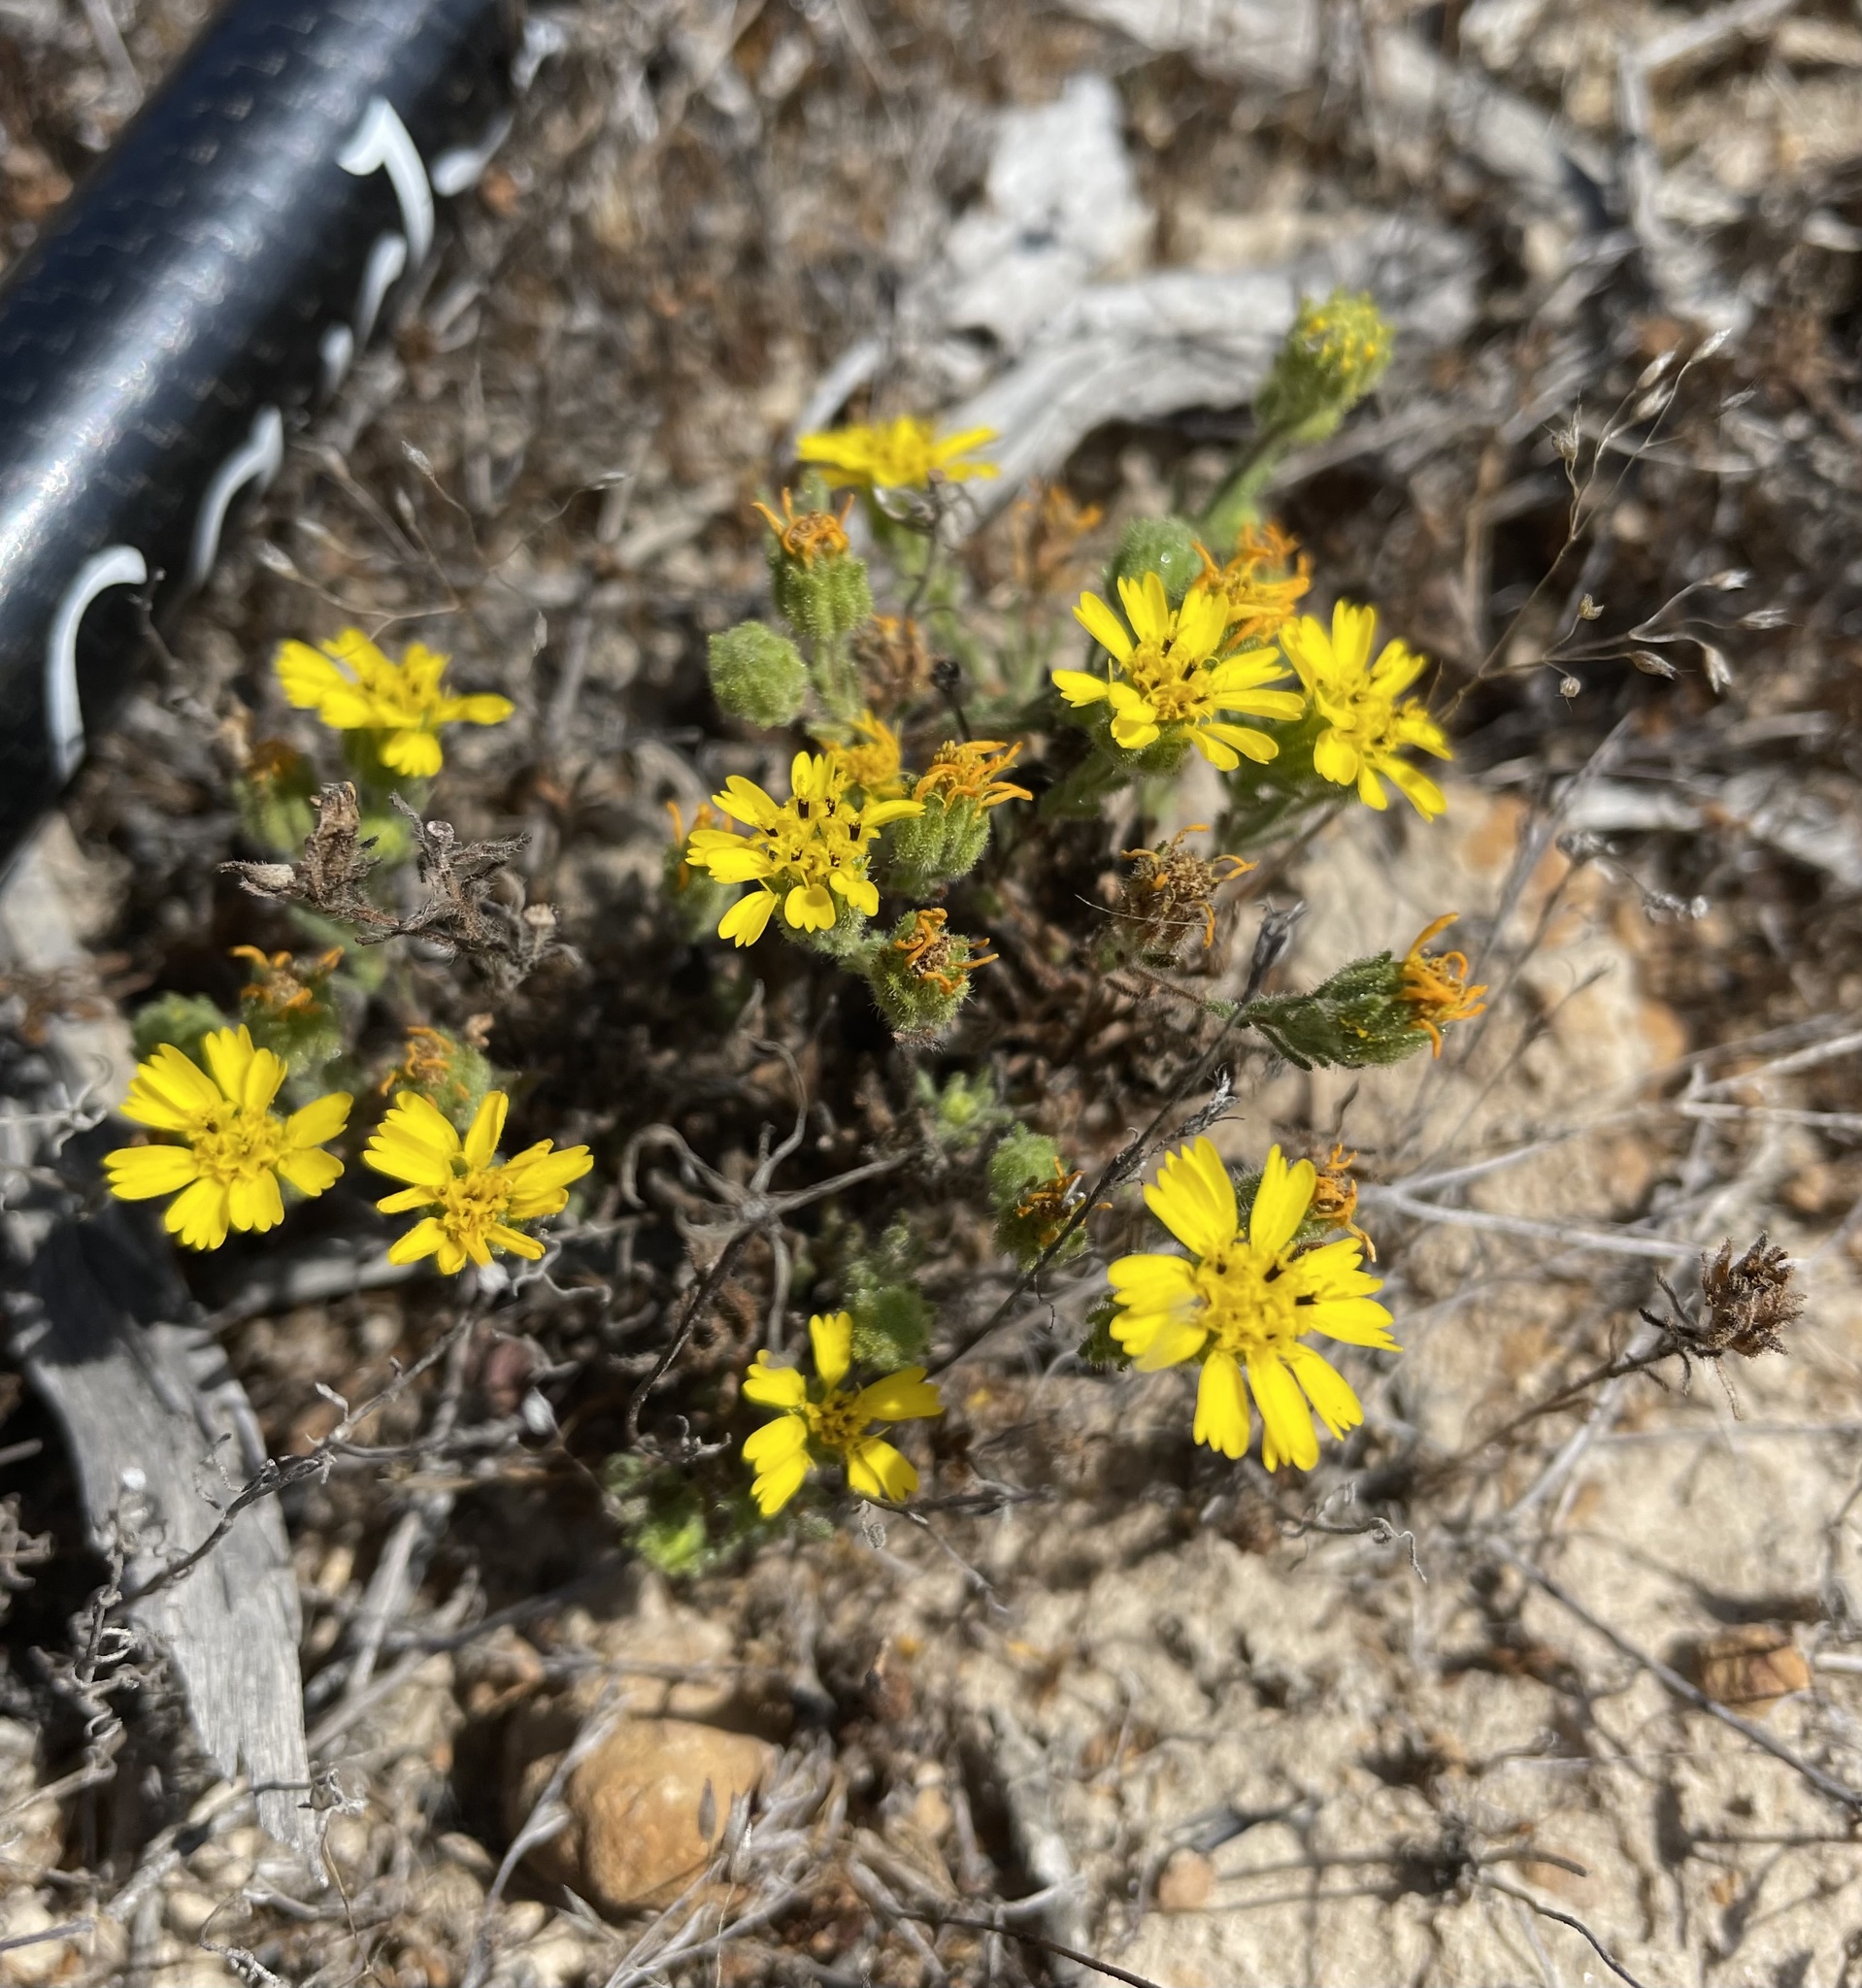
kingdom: Plantae
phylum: Tracheophyta
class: Magnoliopsida
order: Asterales
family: Asteraceae
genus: Deinandra
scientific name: Deinandra corymbosa
